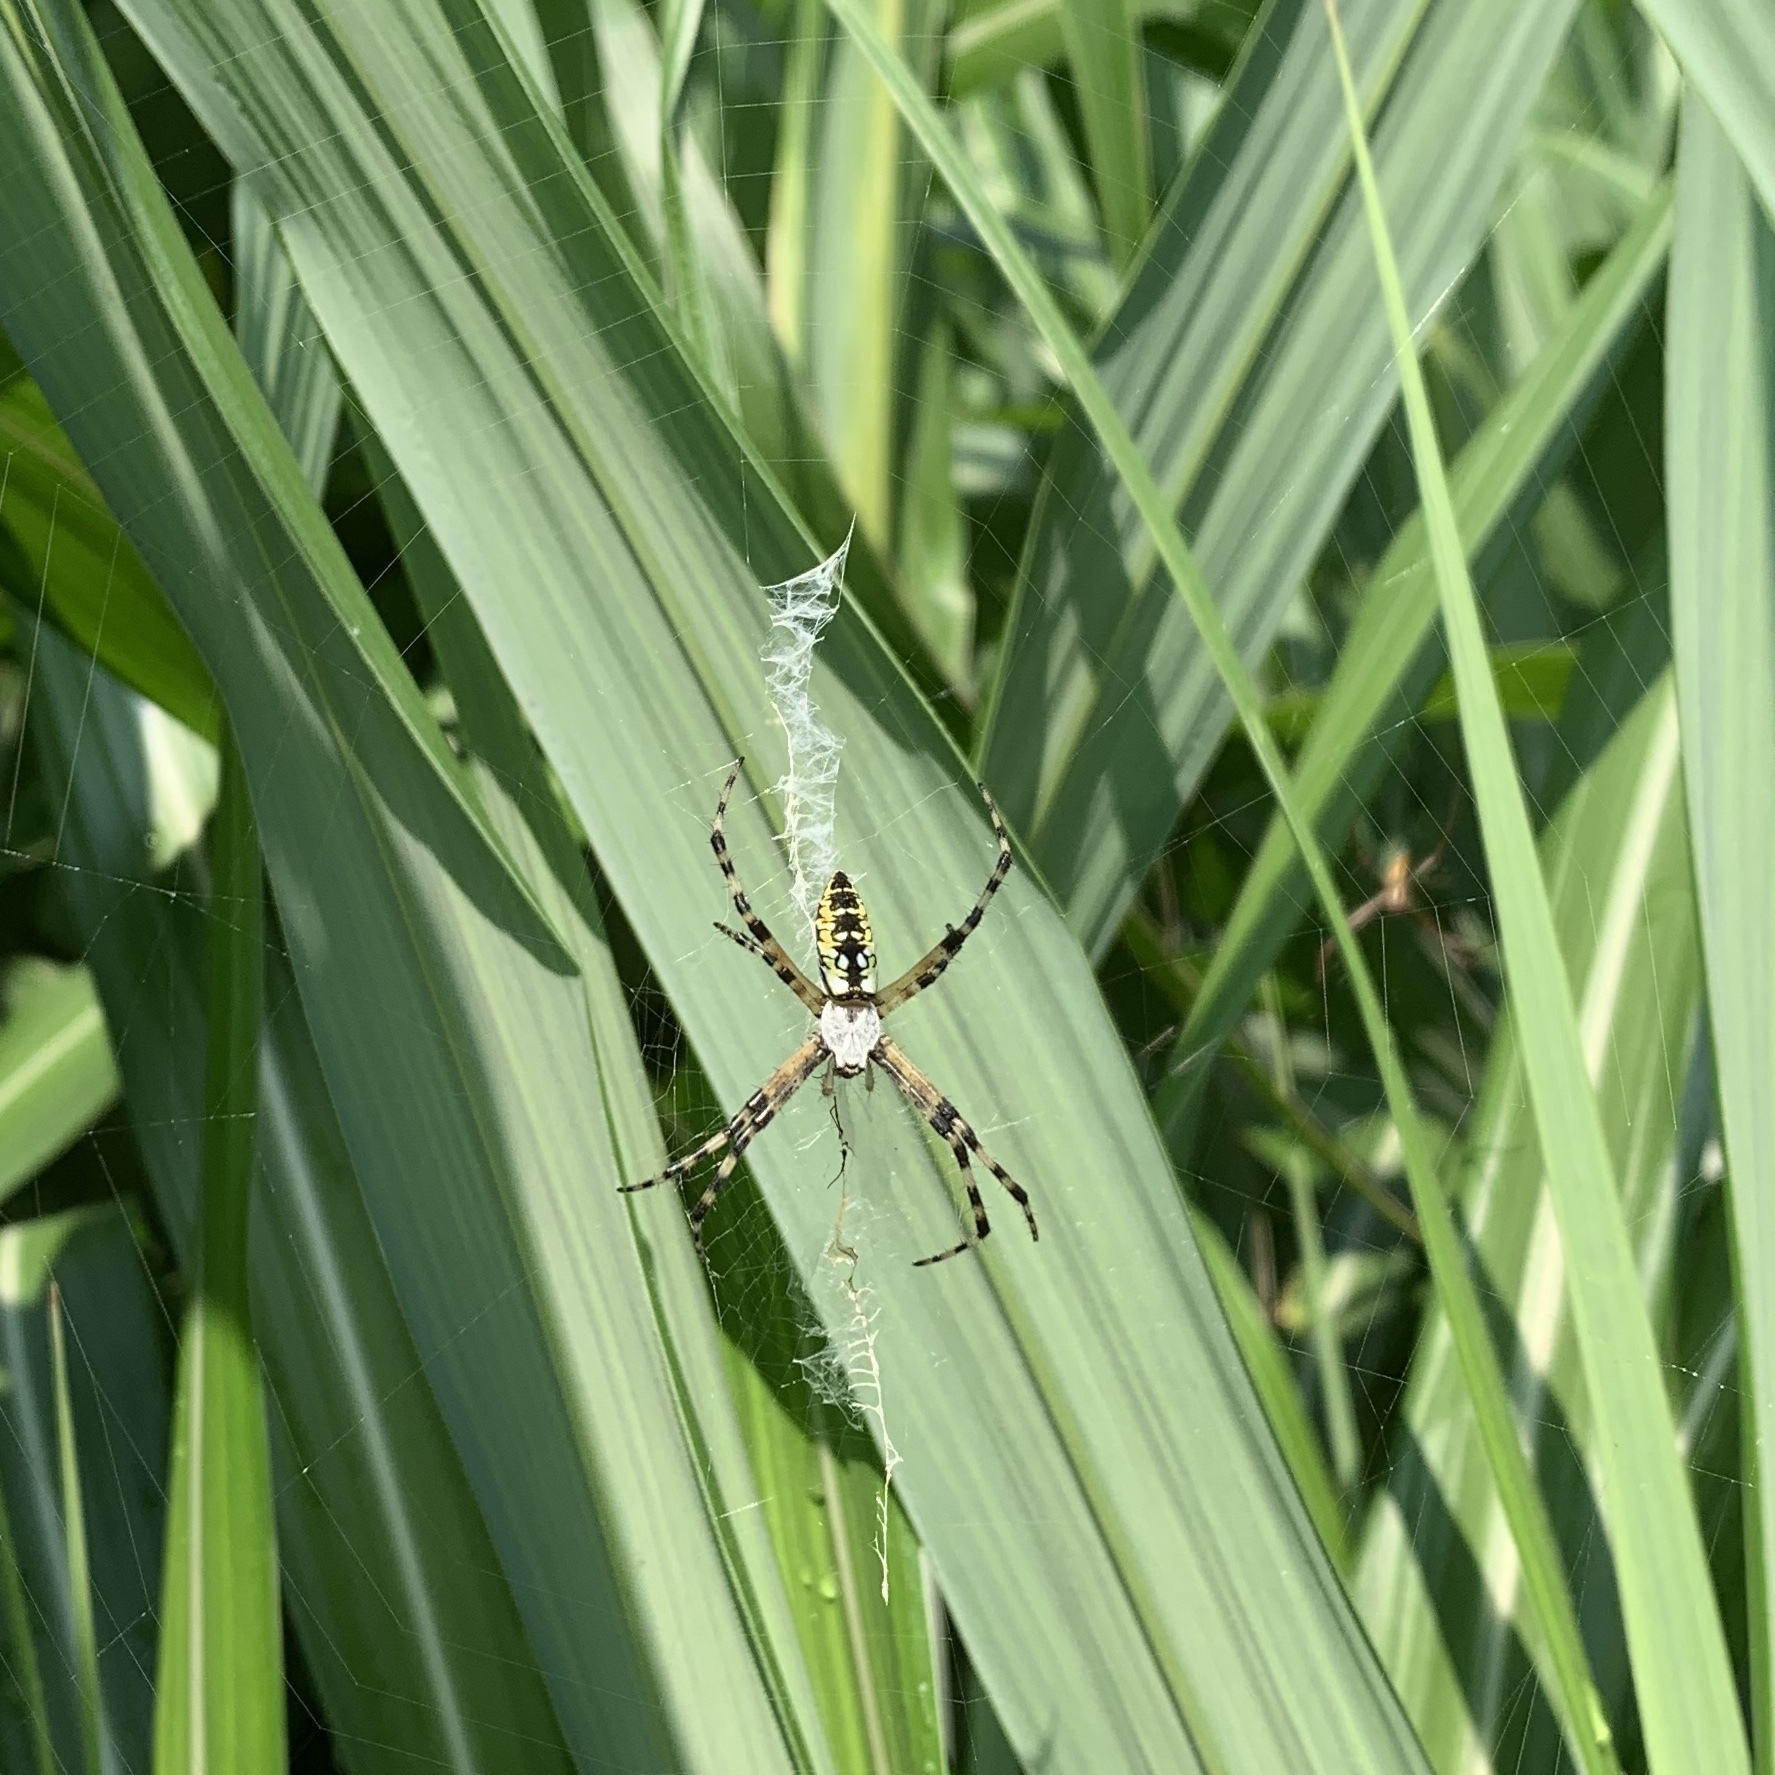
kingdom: Animalia
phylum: Arthropoda
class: Arachnida
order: Araneae
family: Araneidae
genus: Argiope
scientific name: Argiope aurantia
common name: Orb weavers
